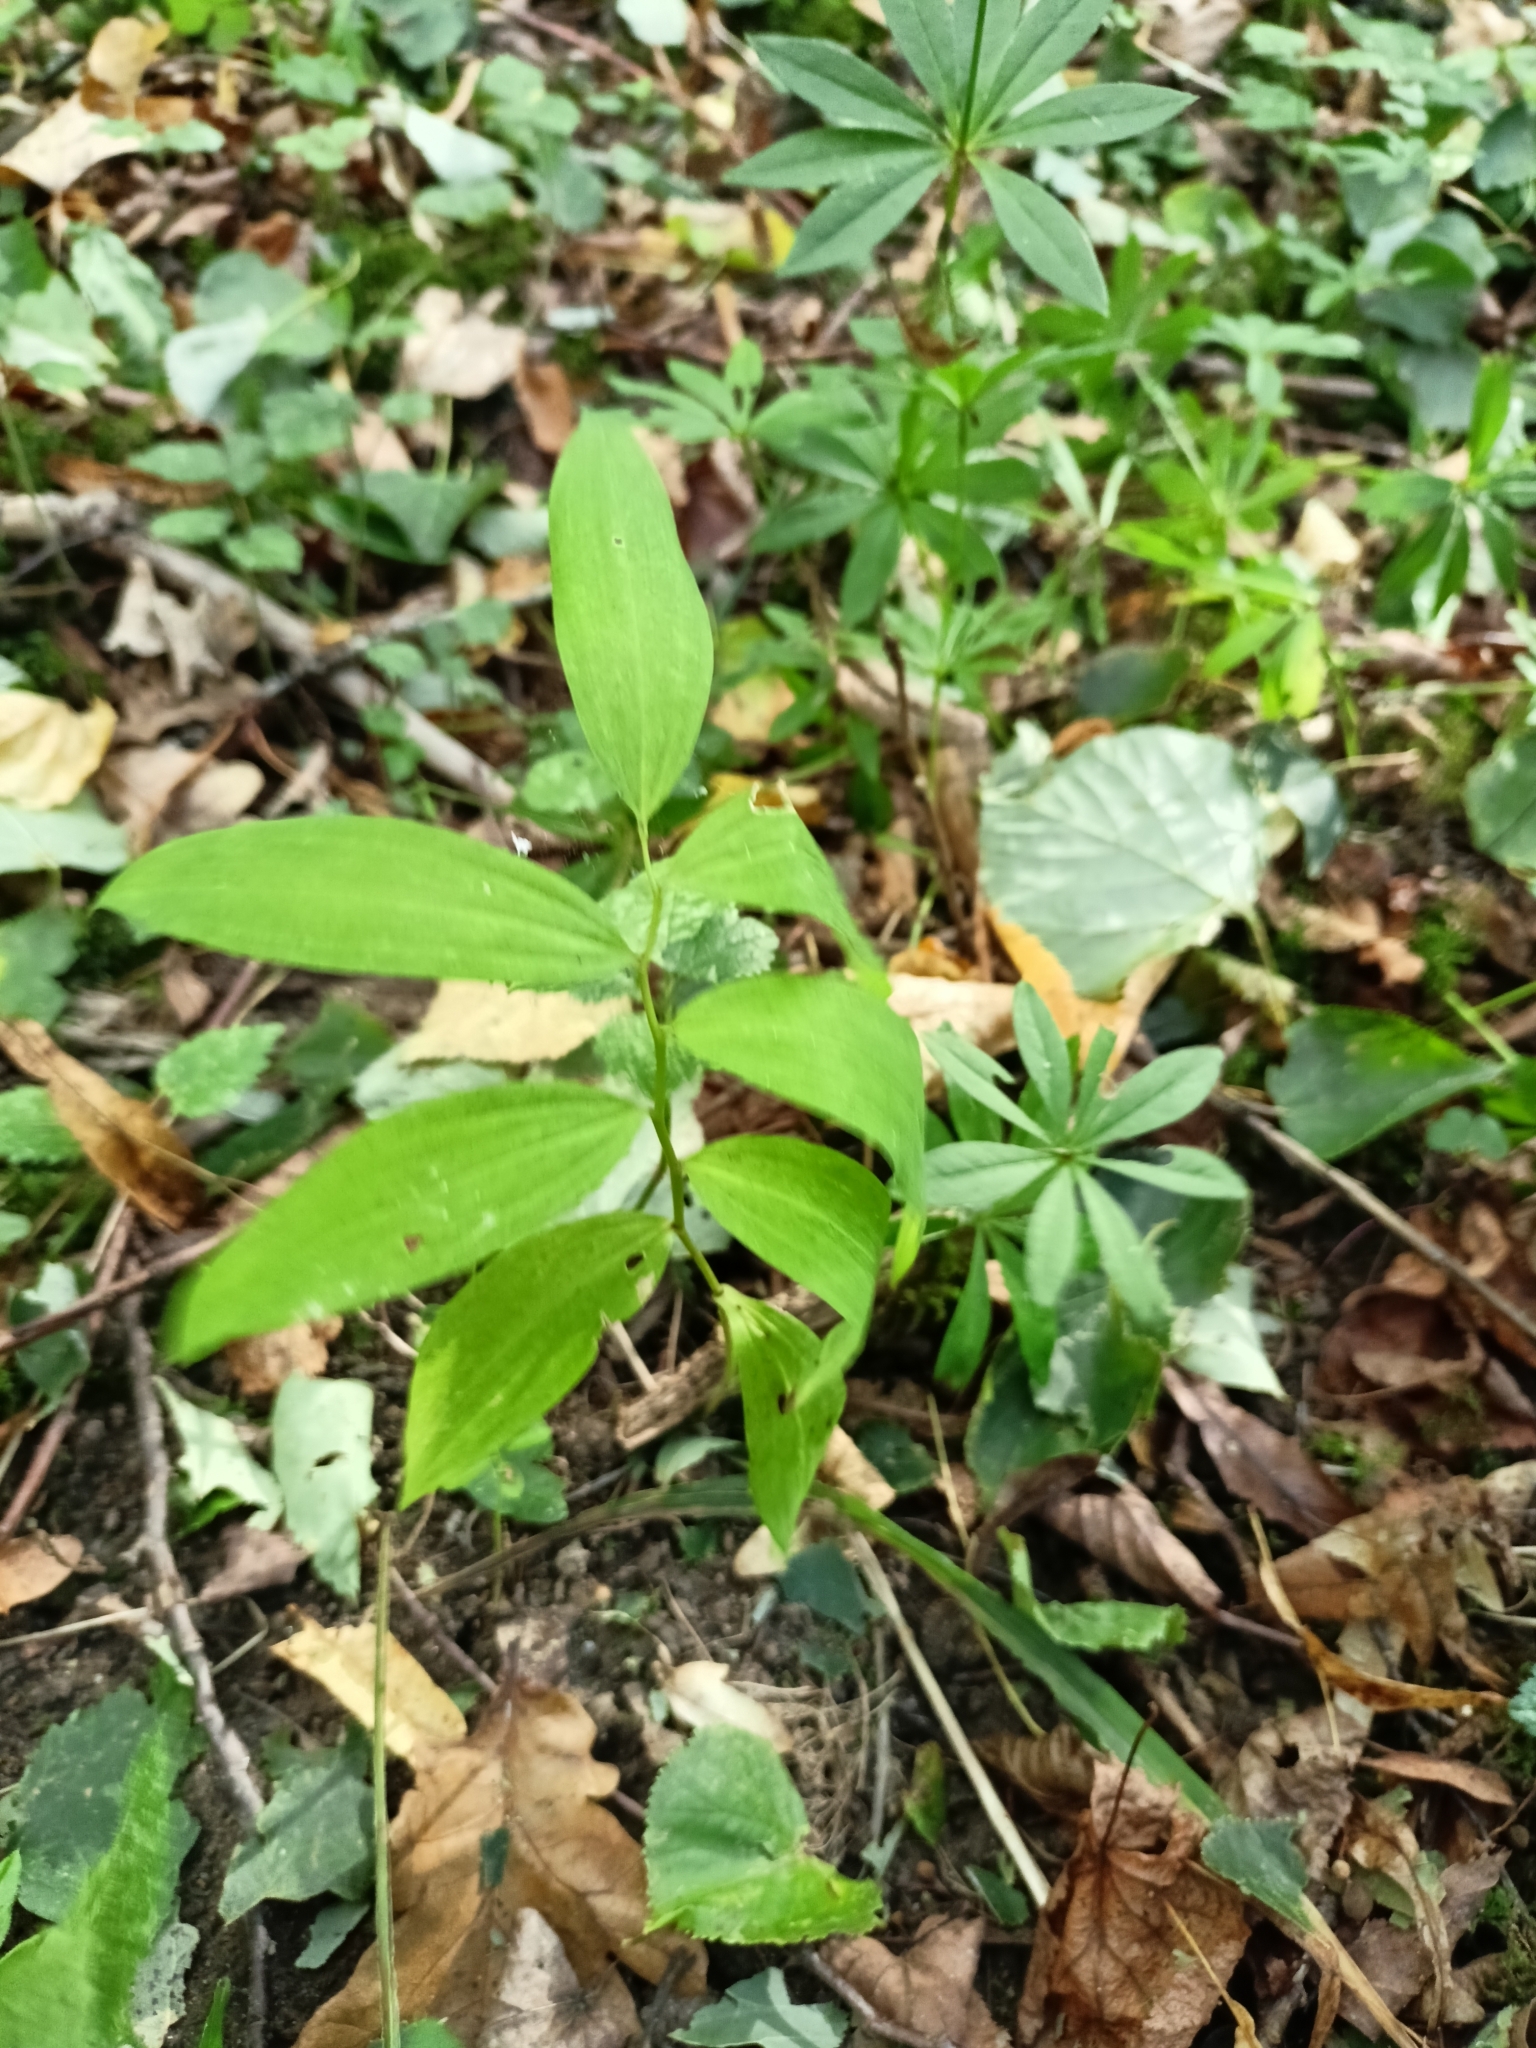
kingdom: Plantae
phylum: Tracheophyta
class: Liliopsida
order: Asparagales
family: Asparagaceae
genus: Polygonatum
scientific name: Polygonatum multiflorum
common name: Solomon's-seal
